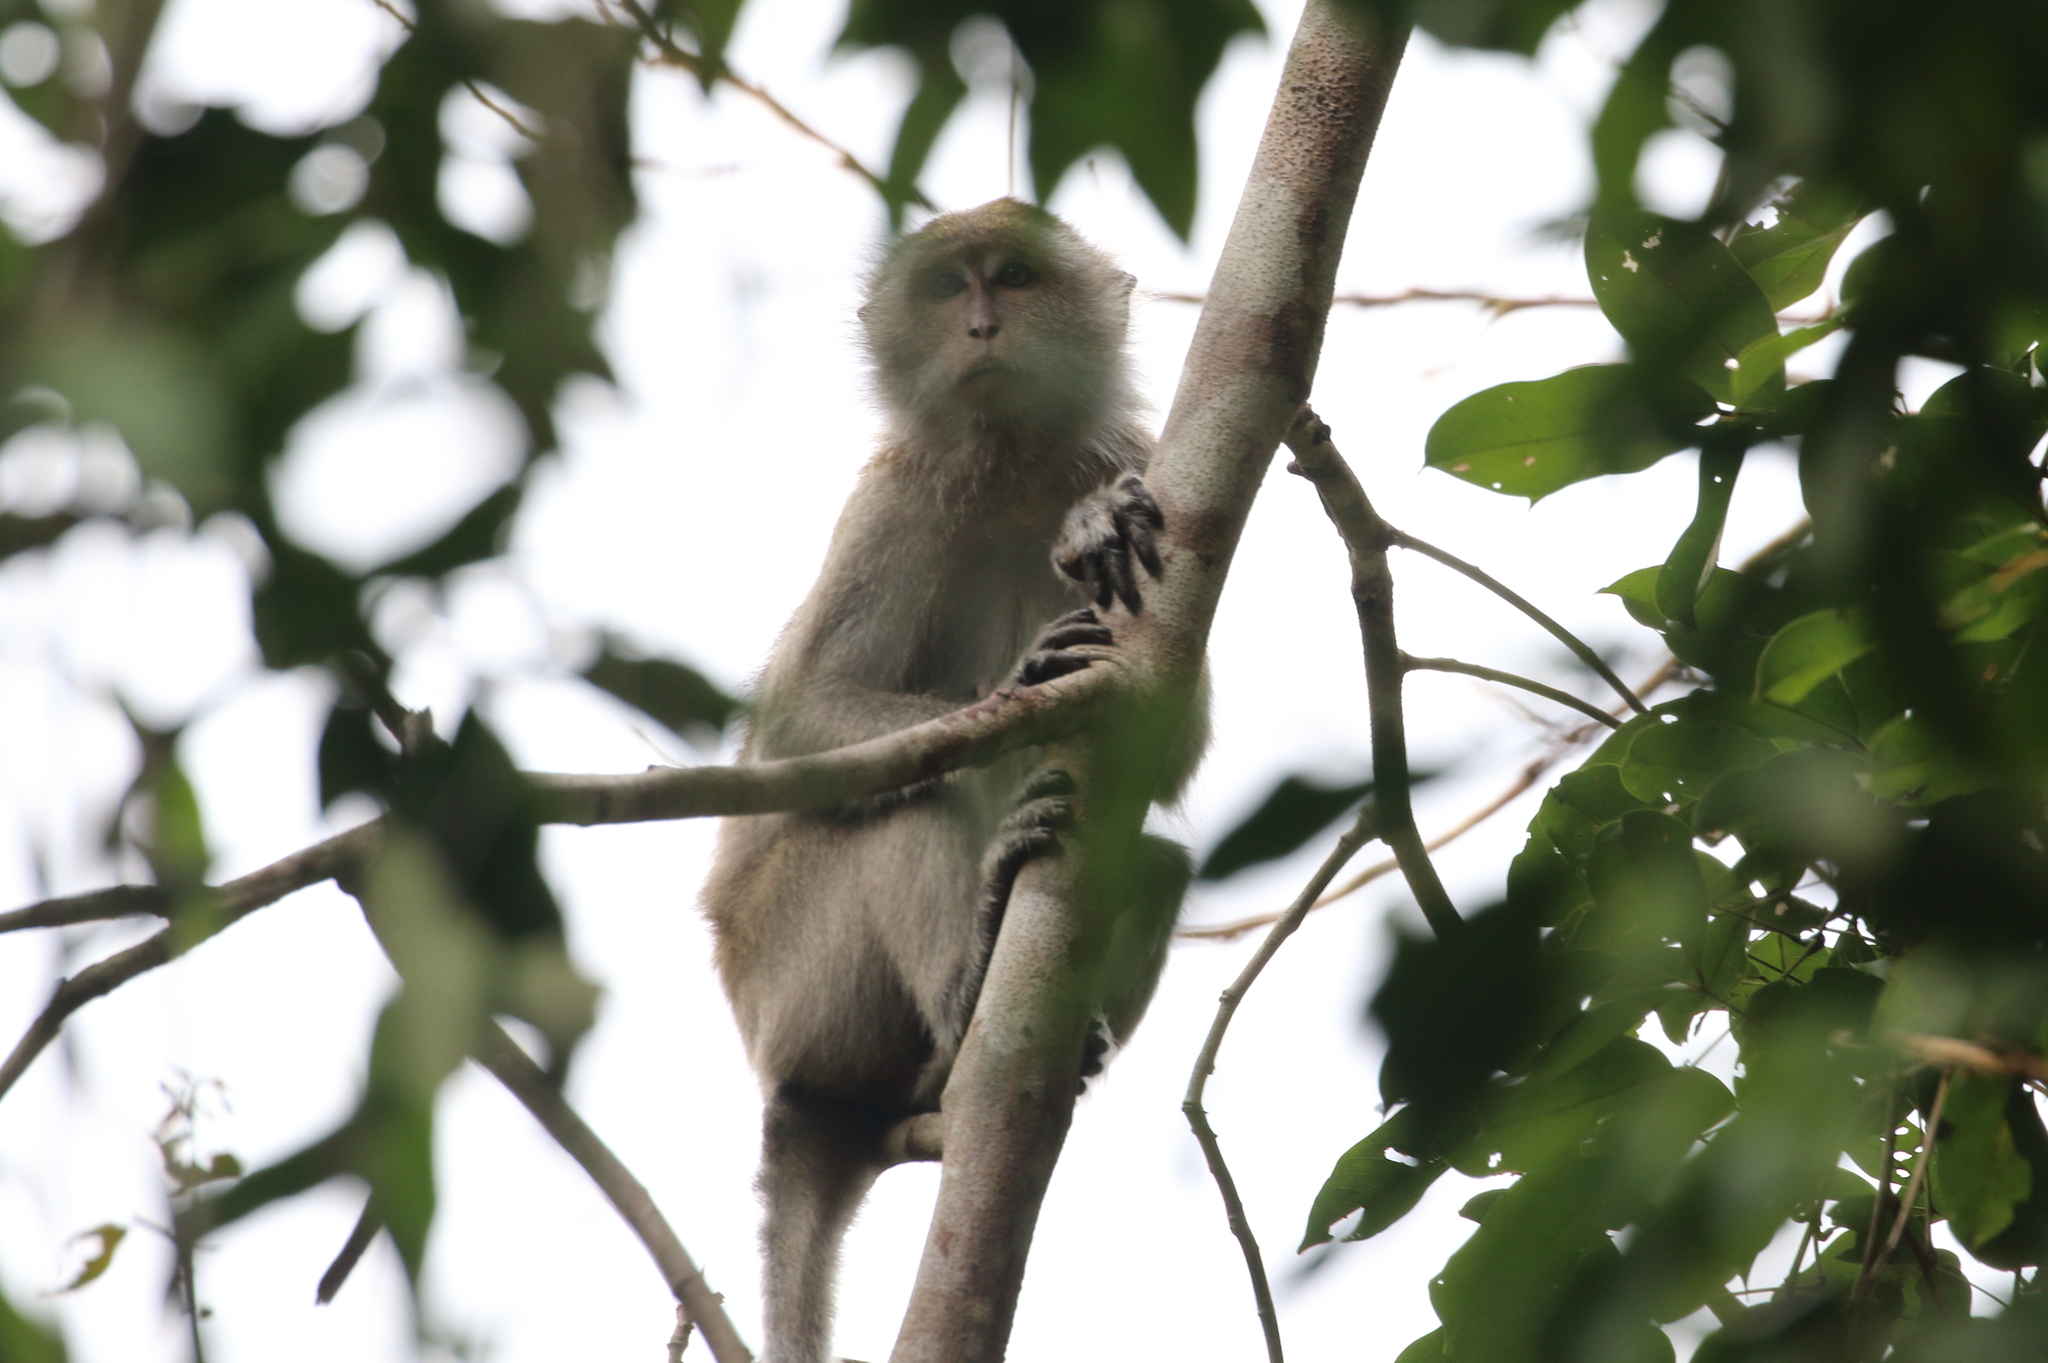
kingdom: Animalia
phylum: Chordata
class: Mammalia
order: Primates
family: Cercopithecidae
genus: Macaca
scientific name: Macaca fascicularis
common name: Crab-eating macaque
